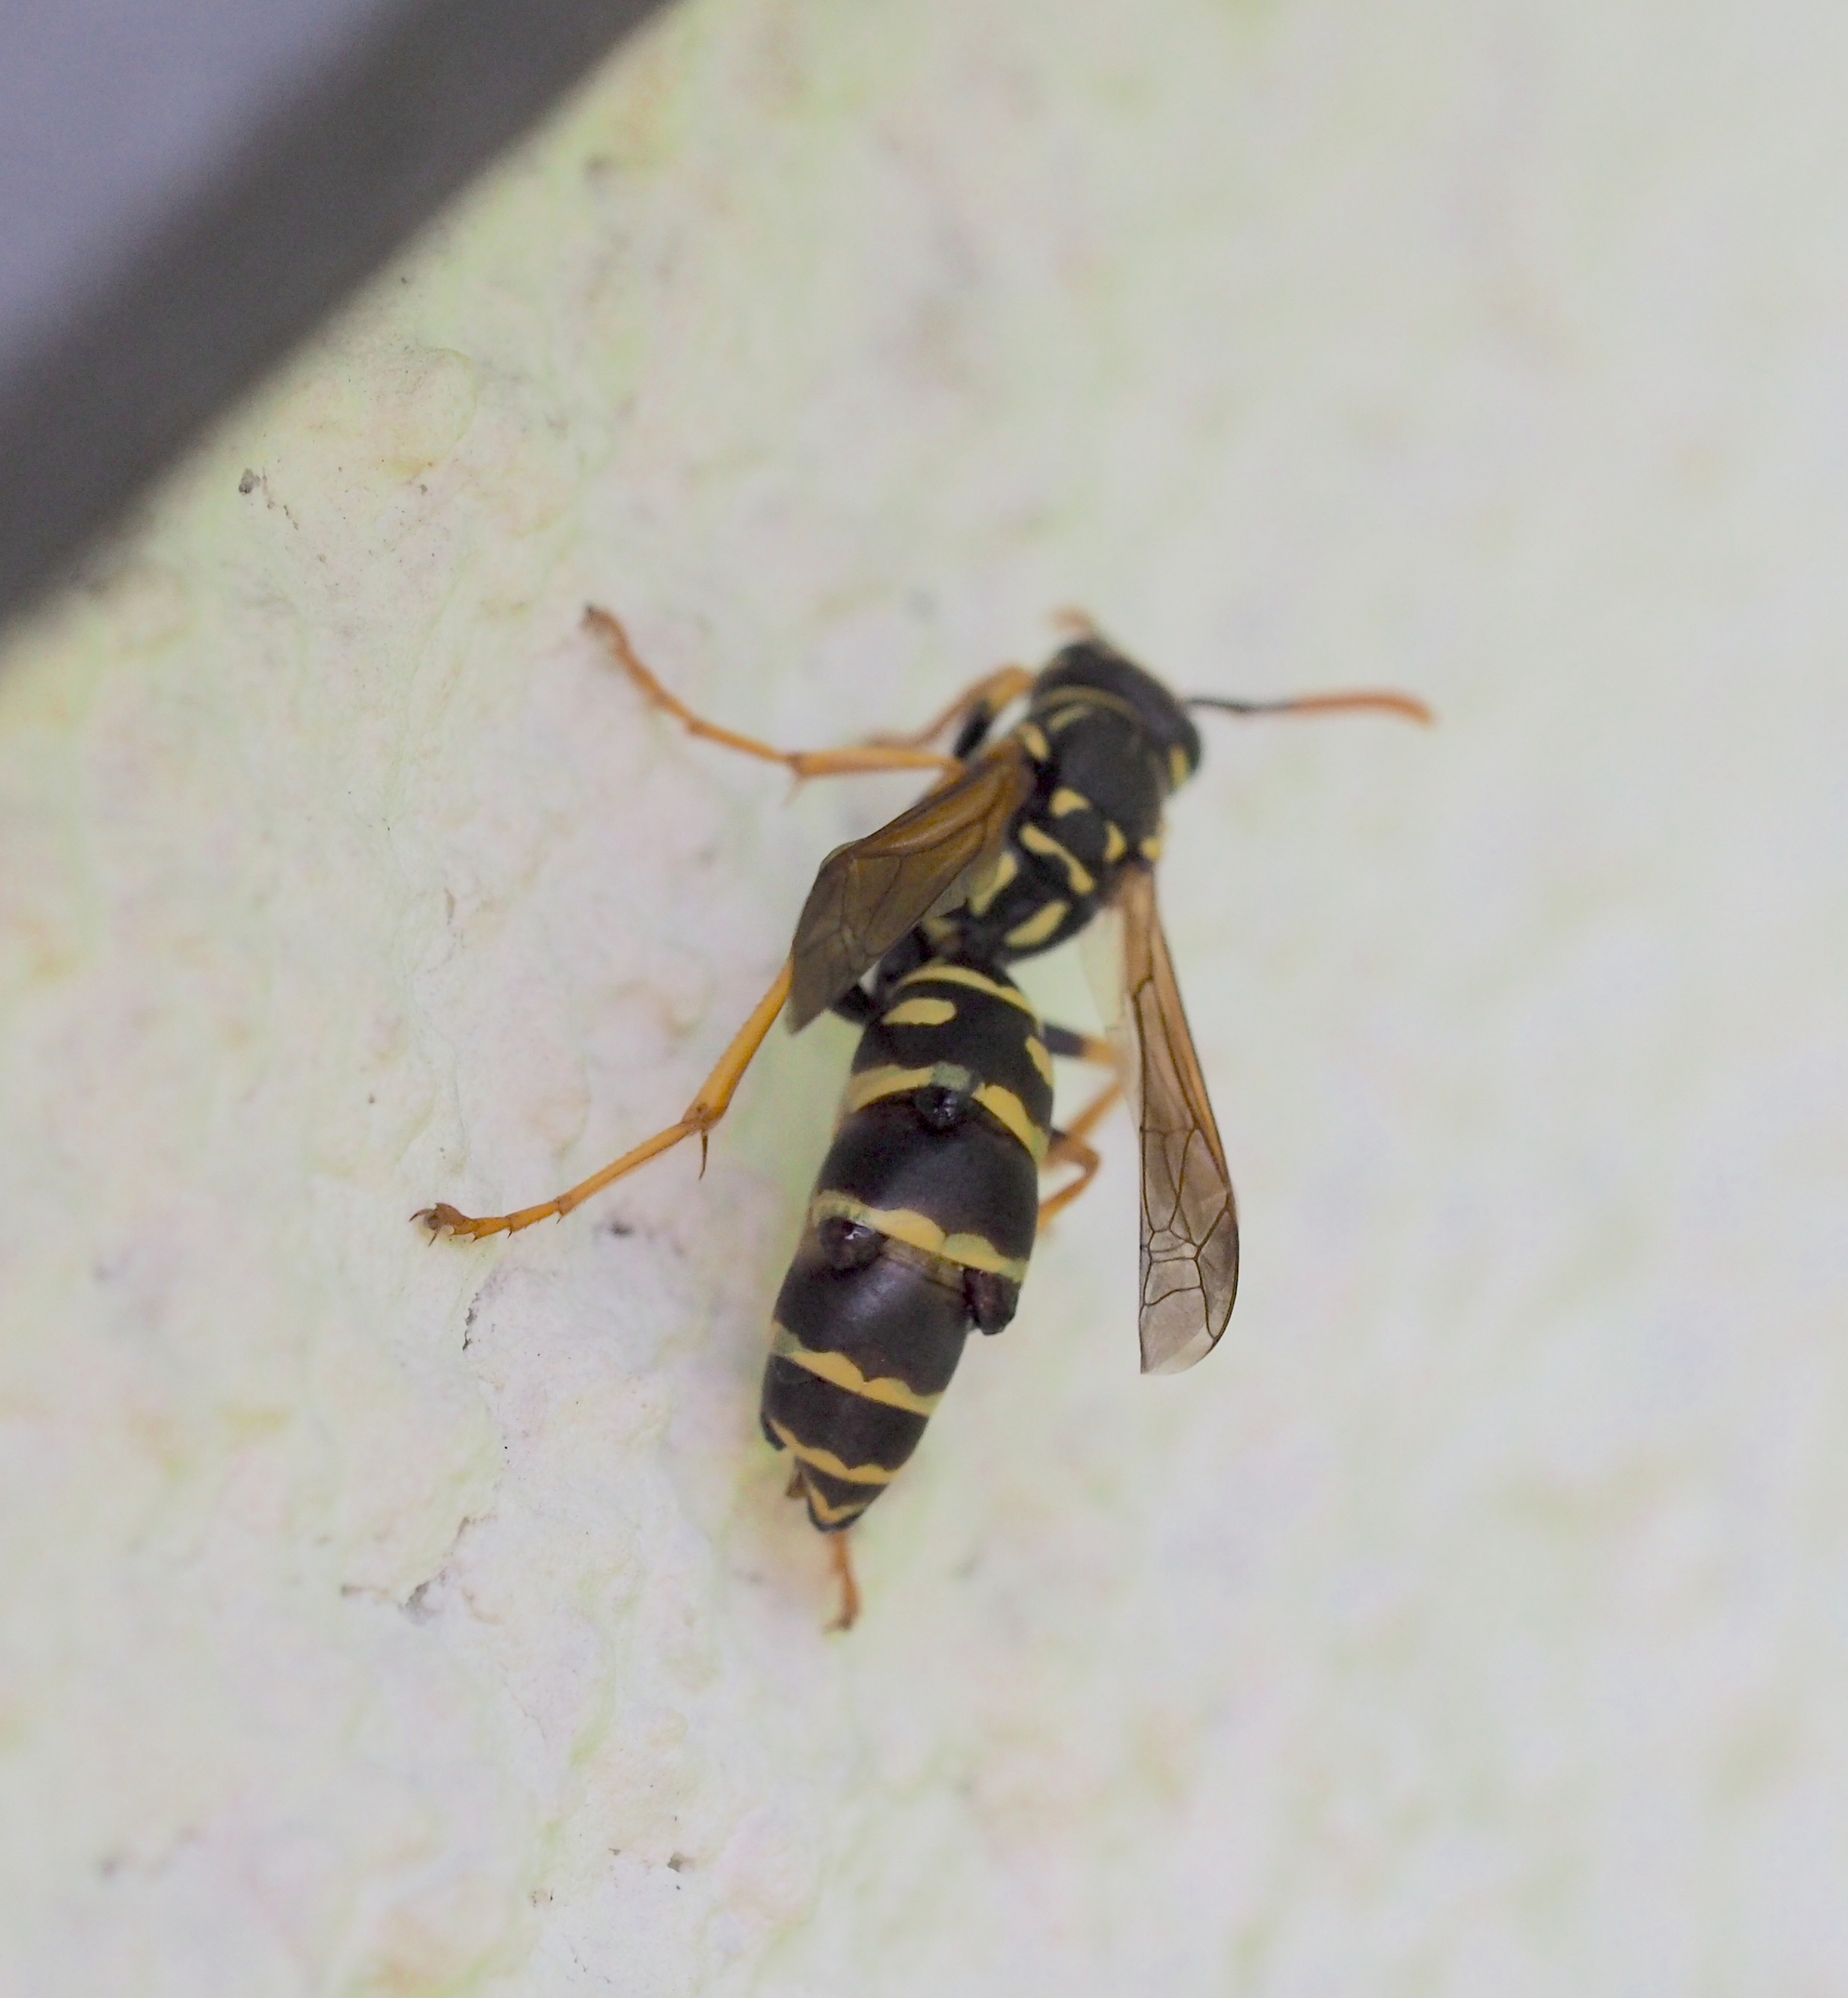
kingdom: Animalia
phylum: Arthropoda
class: Insecta
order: Strepsiptera
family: Xenidae
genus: Xenos
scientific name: Xenos vesparum
